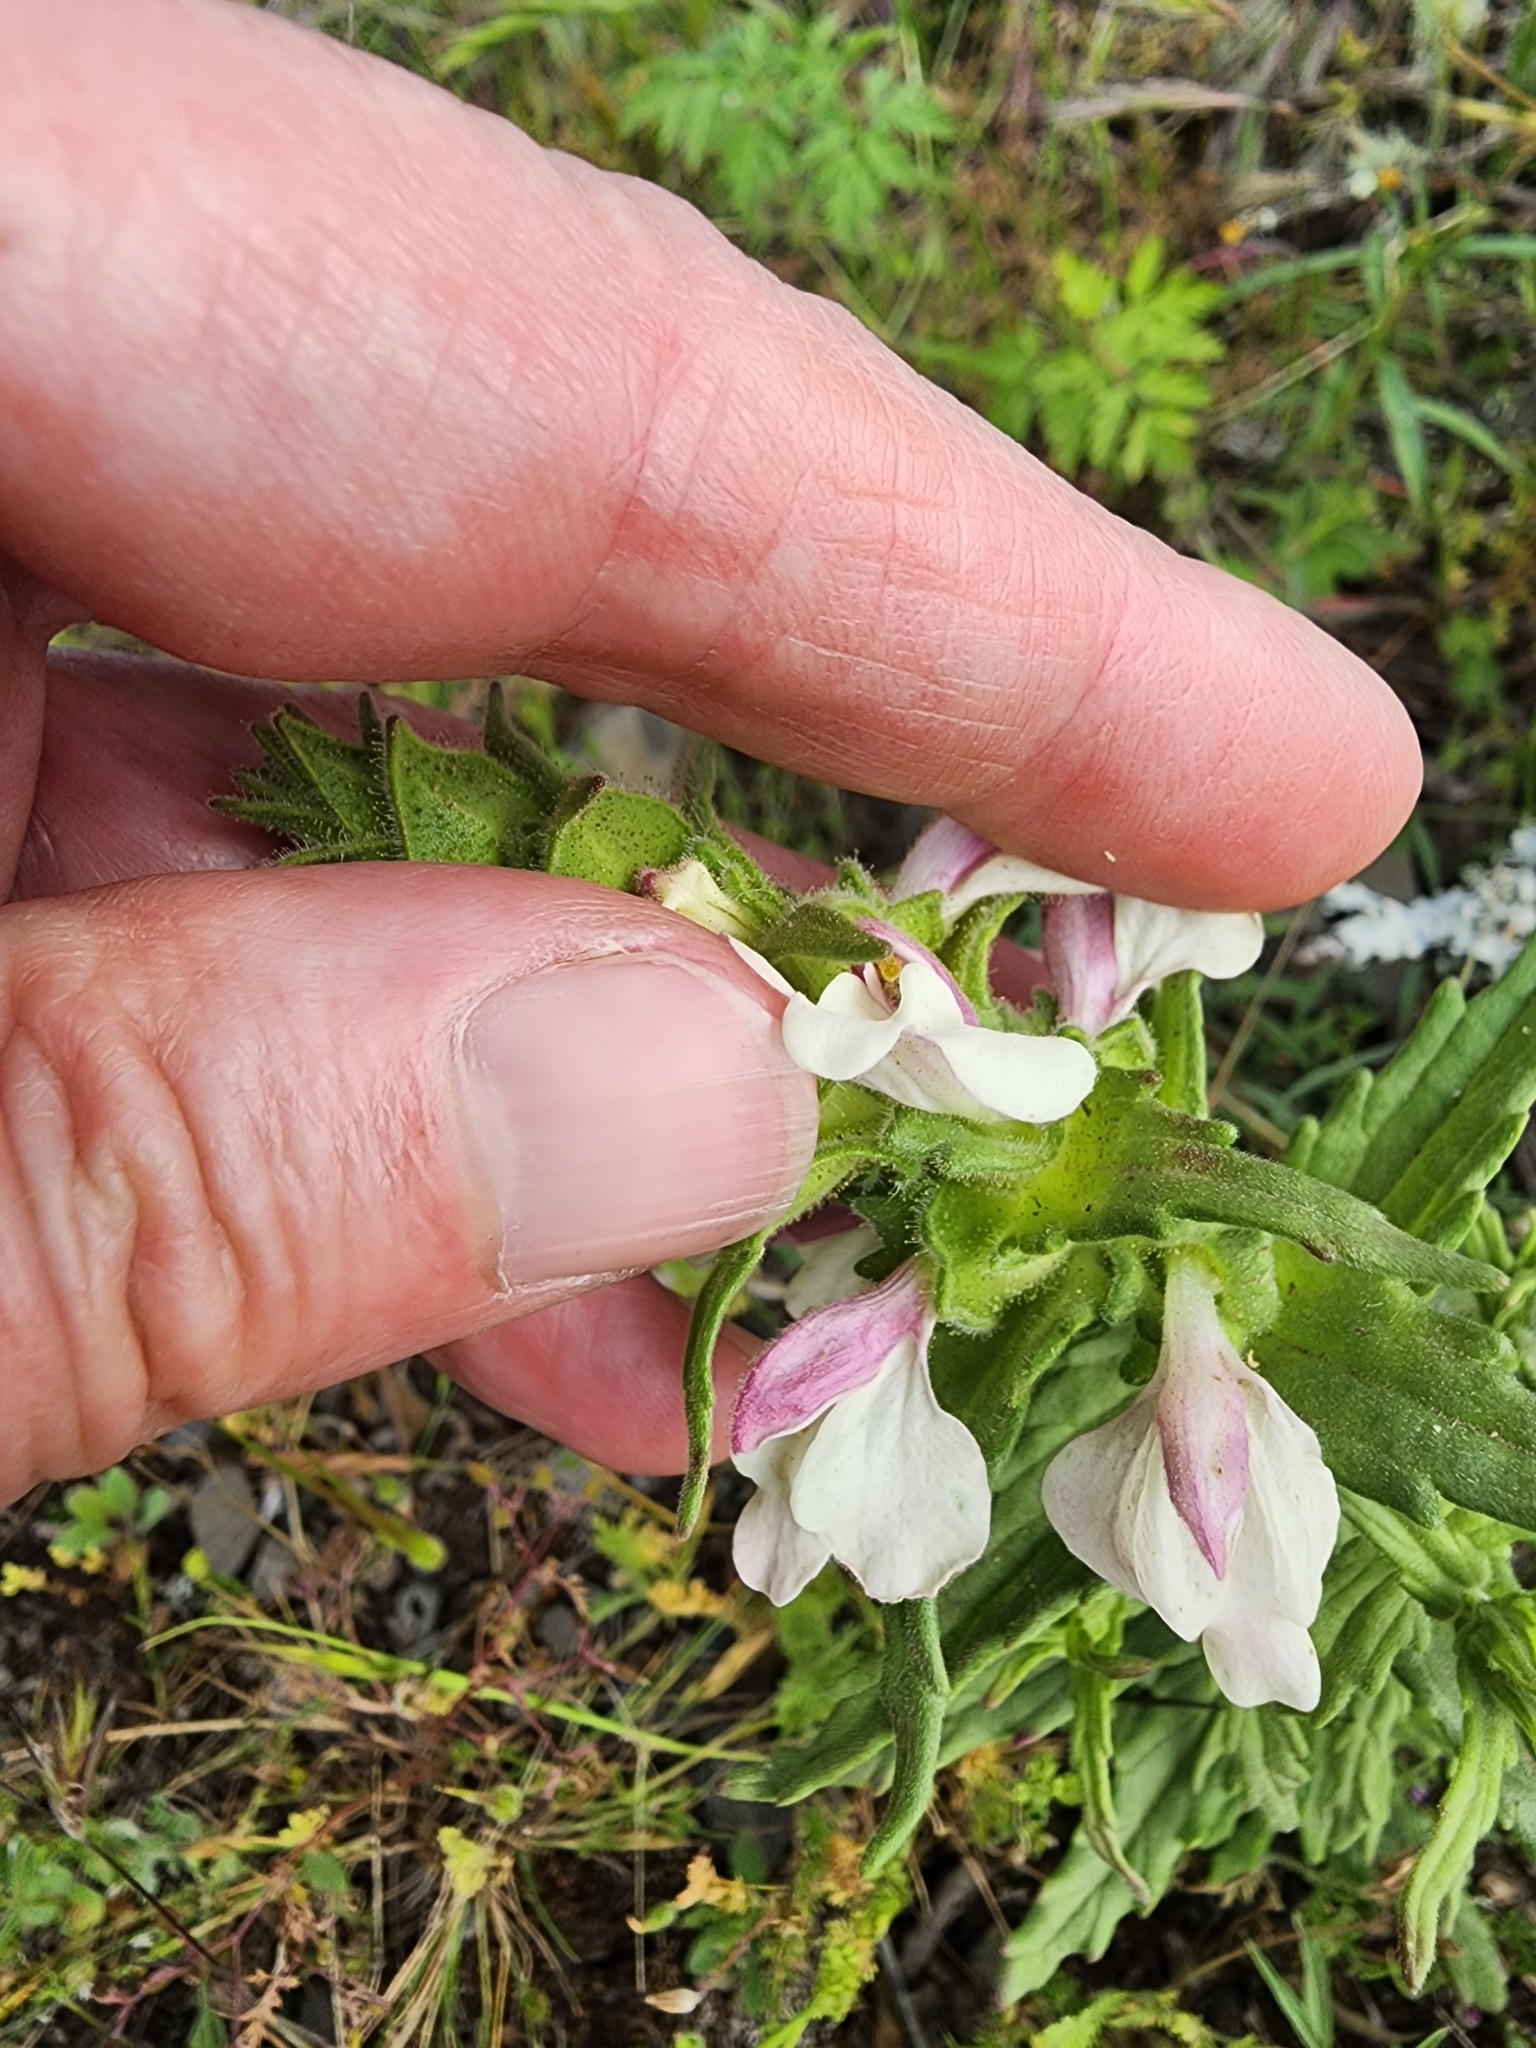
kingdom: Plantae
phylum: Tracheophyta
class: Magnoliopsida
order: Lamiales
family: Orobanchaceae
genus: Bellardia
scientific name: Bellardia trixago
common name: Mediterranean lineseed
